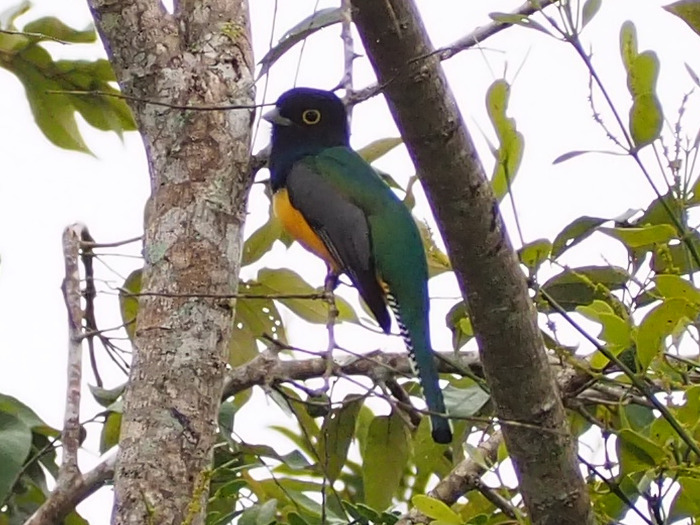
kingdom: Animalia
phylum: Chordata
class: Aves
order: Trogoniformes
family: Trogonidae
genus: Trogon
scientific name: Trogon caligatus
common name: Gartered trogon
